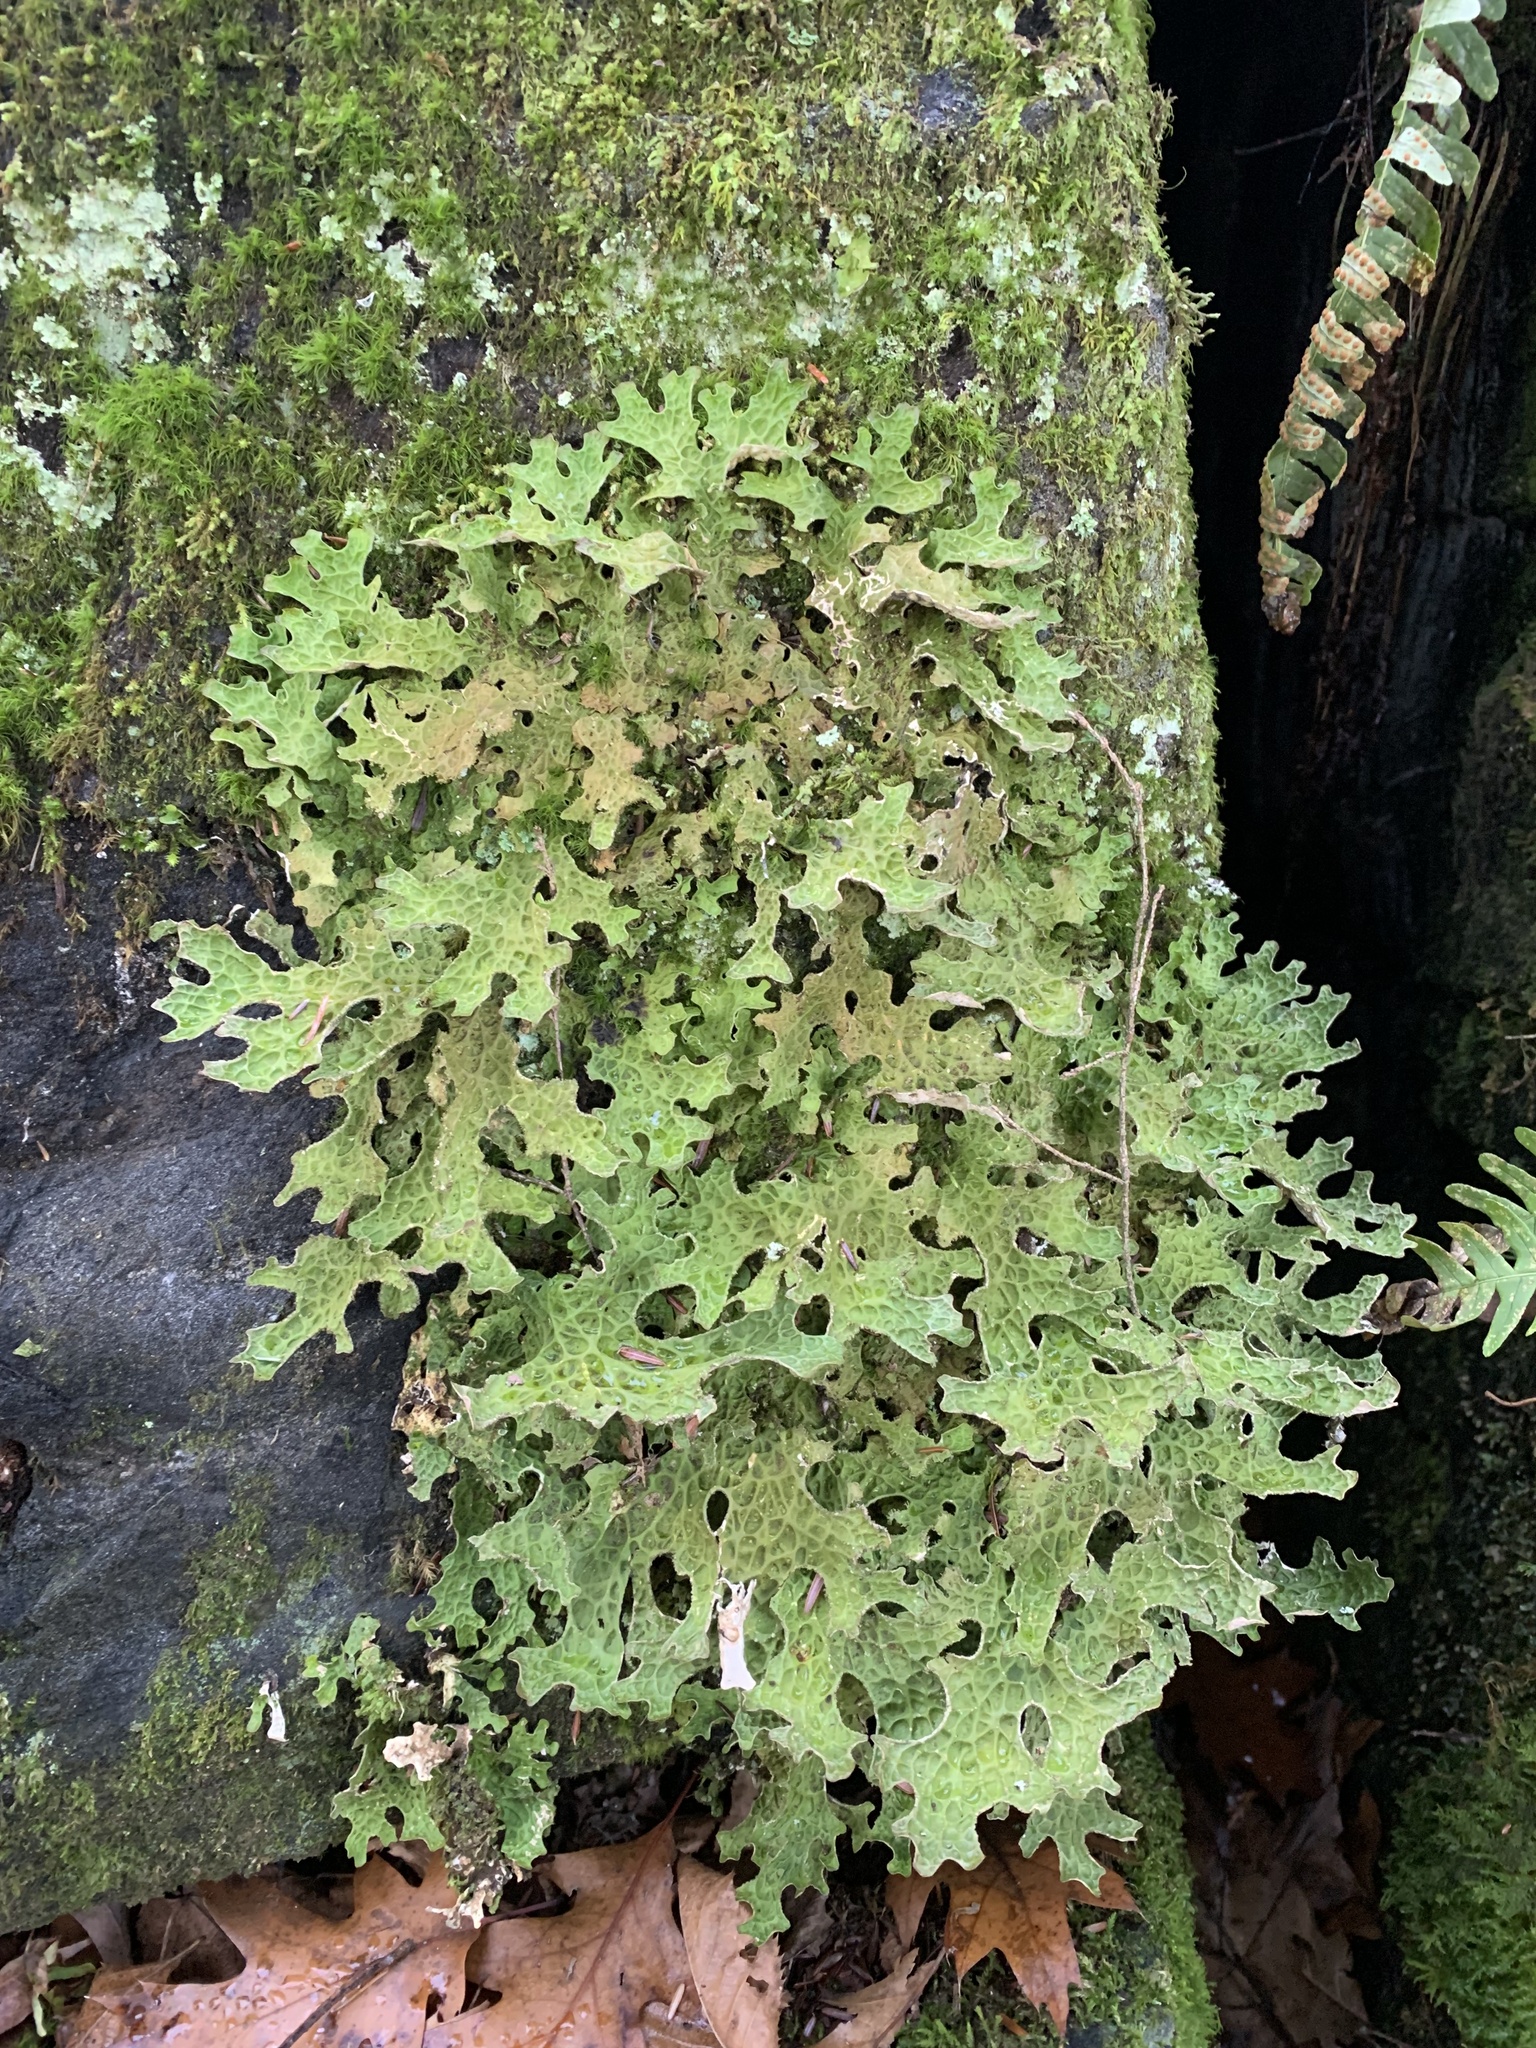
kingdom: Fungi
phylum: Ascomycota
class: Lecanoromycetes
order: Peltigerales
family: Lobariaceae
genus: Lobaria
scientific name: Lobaria pulmonaria
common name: Lungwort
